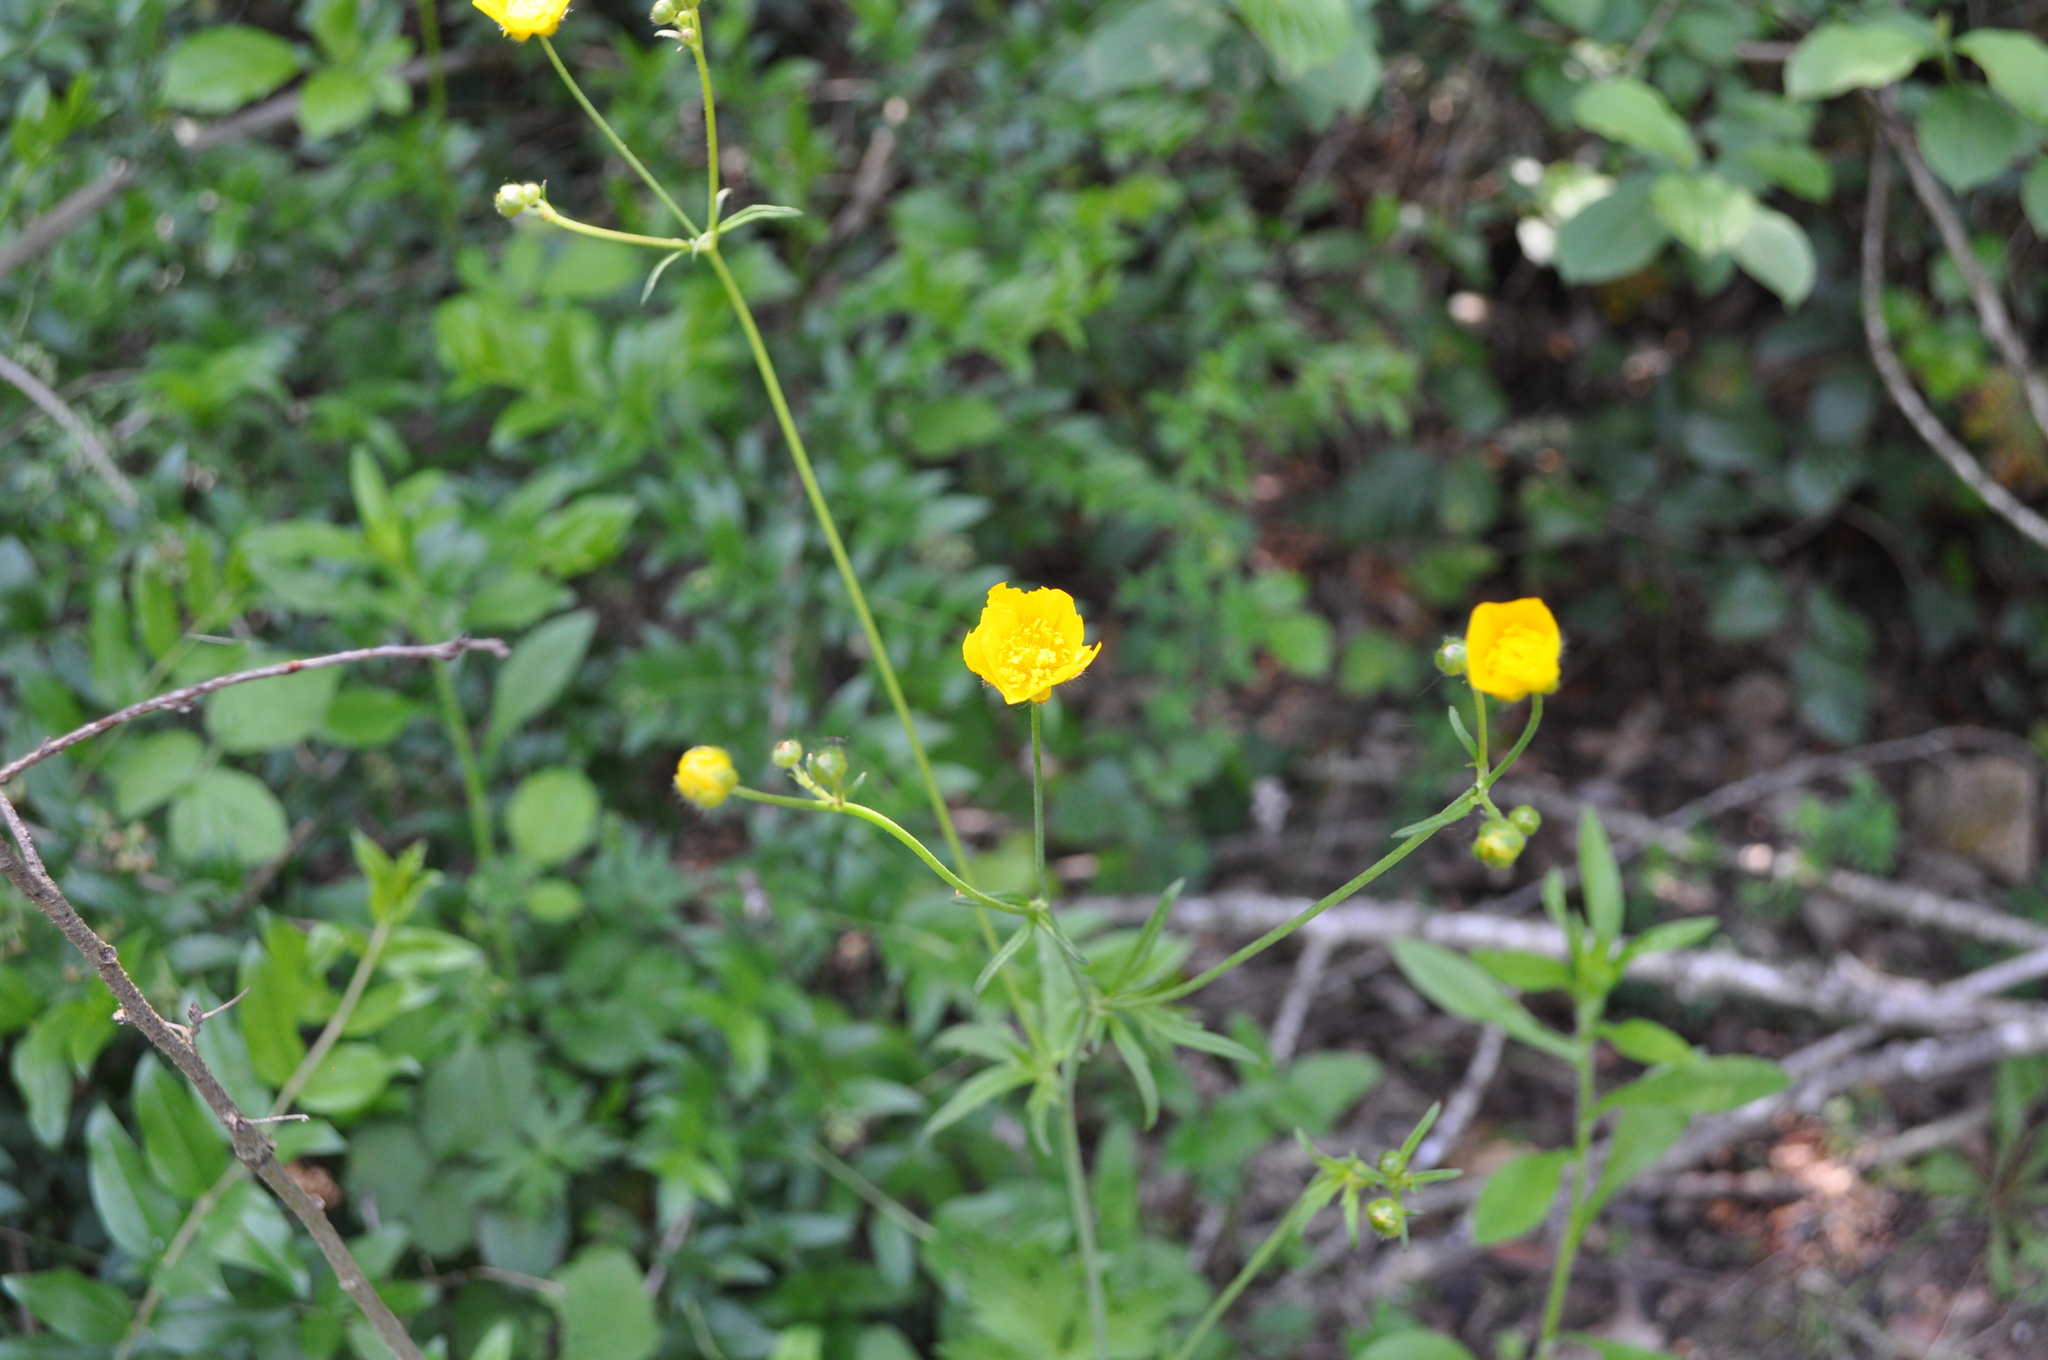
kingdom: Plantae
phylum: Tracheophyta
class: Magnoliopsida
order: Ranunculales
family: Ranunculaceae
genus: Ranunculus
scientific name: Ranunculus acris
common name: Meadow buttercup
